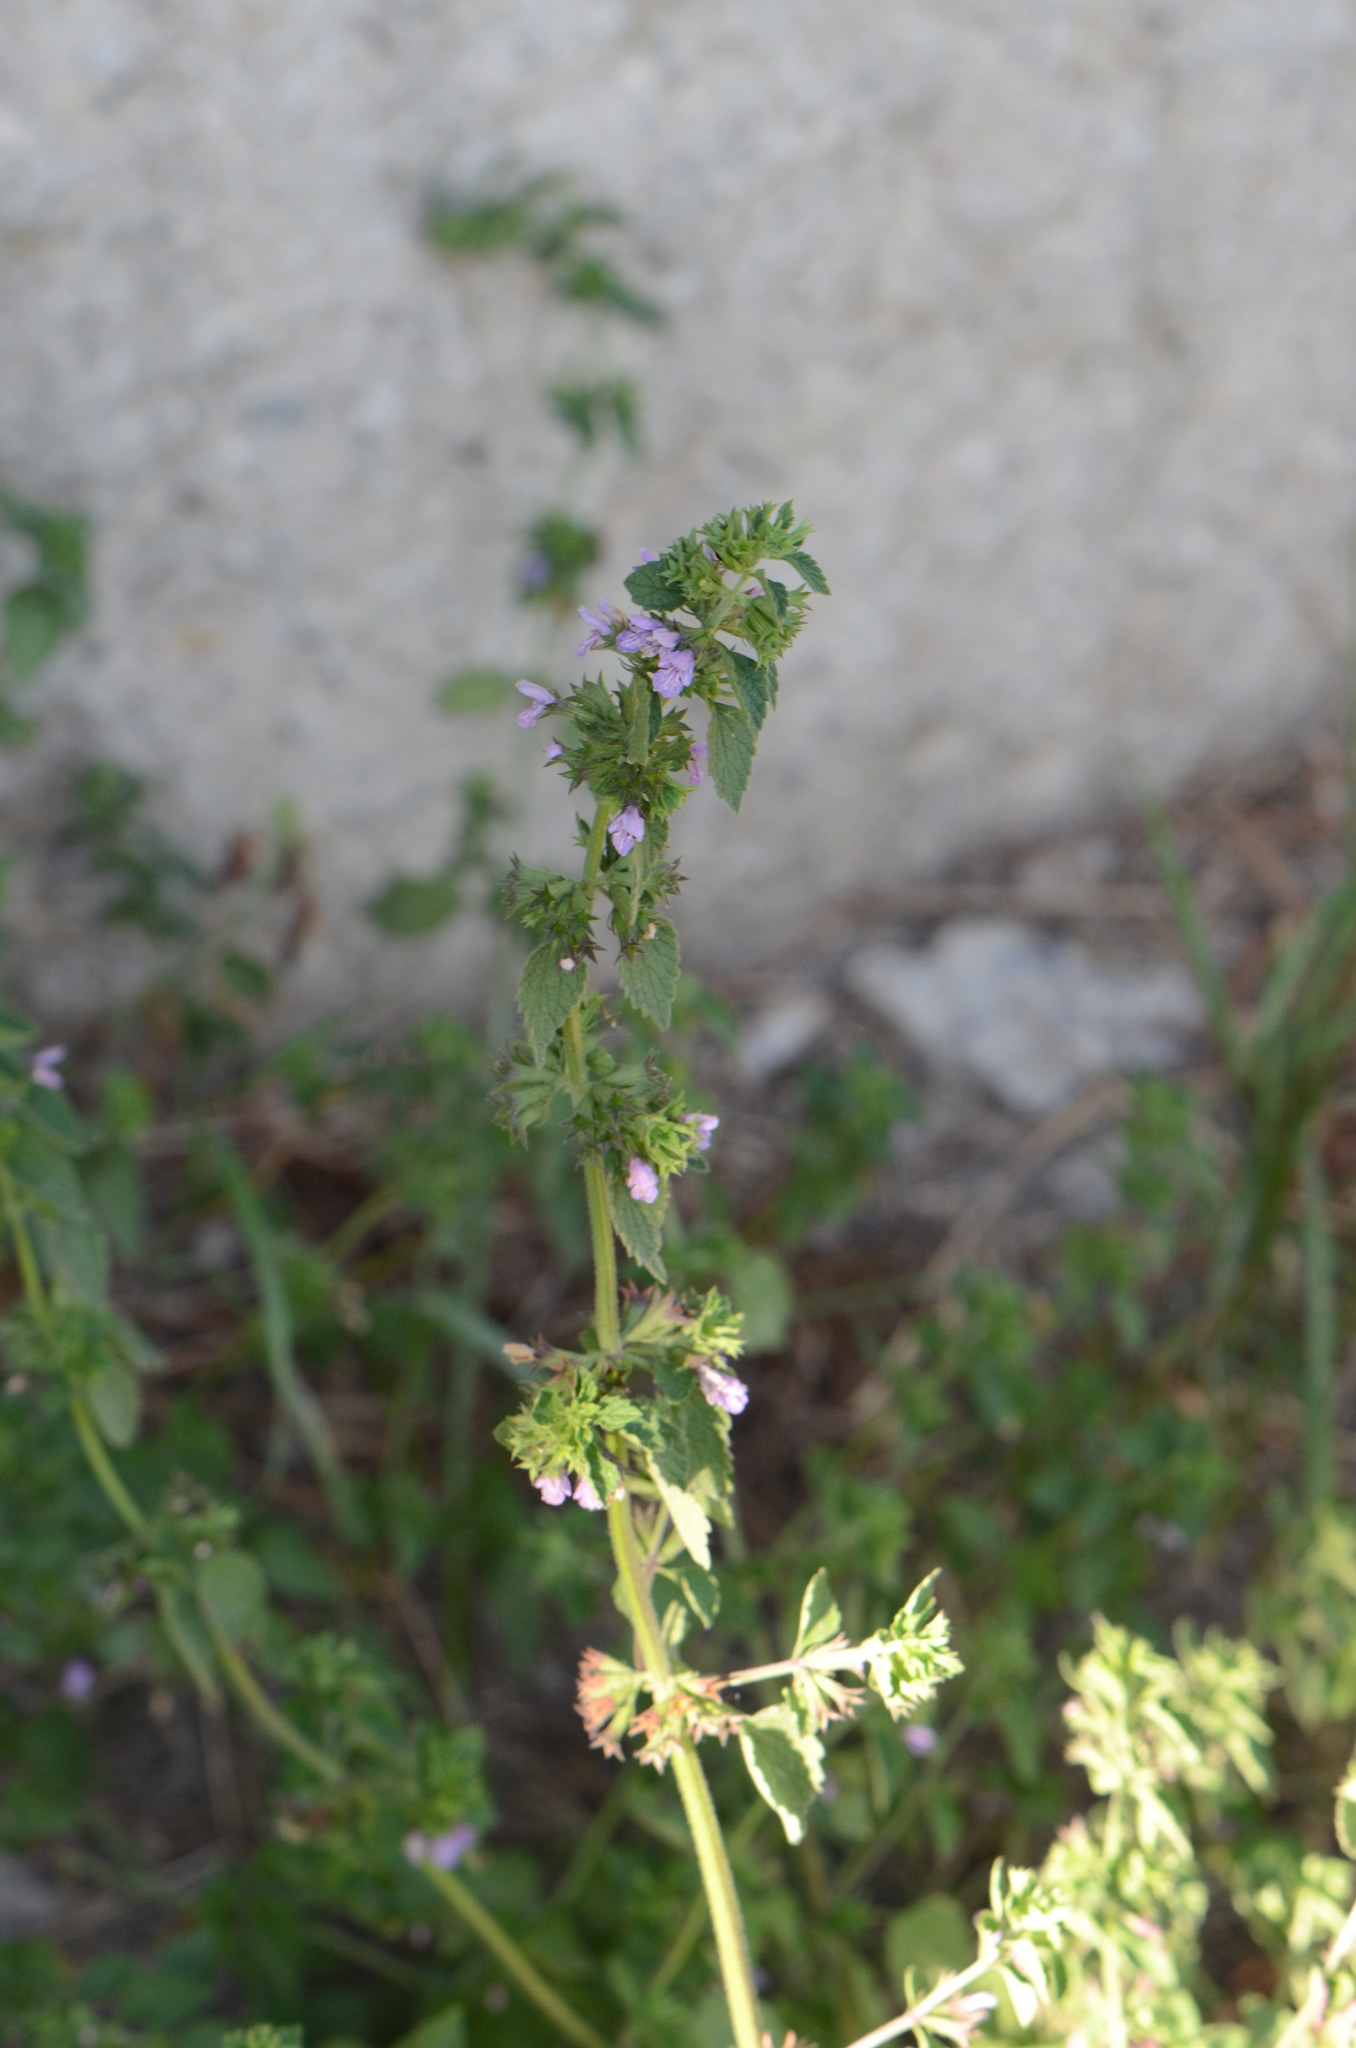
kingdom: Plantae
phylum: Tracheophyta
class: Magnoliopsida
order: Lamiales
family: Lamiaceae
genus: Ballota
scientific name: Ballota nigra
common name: Black horehound
